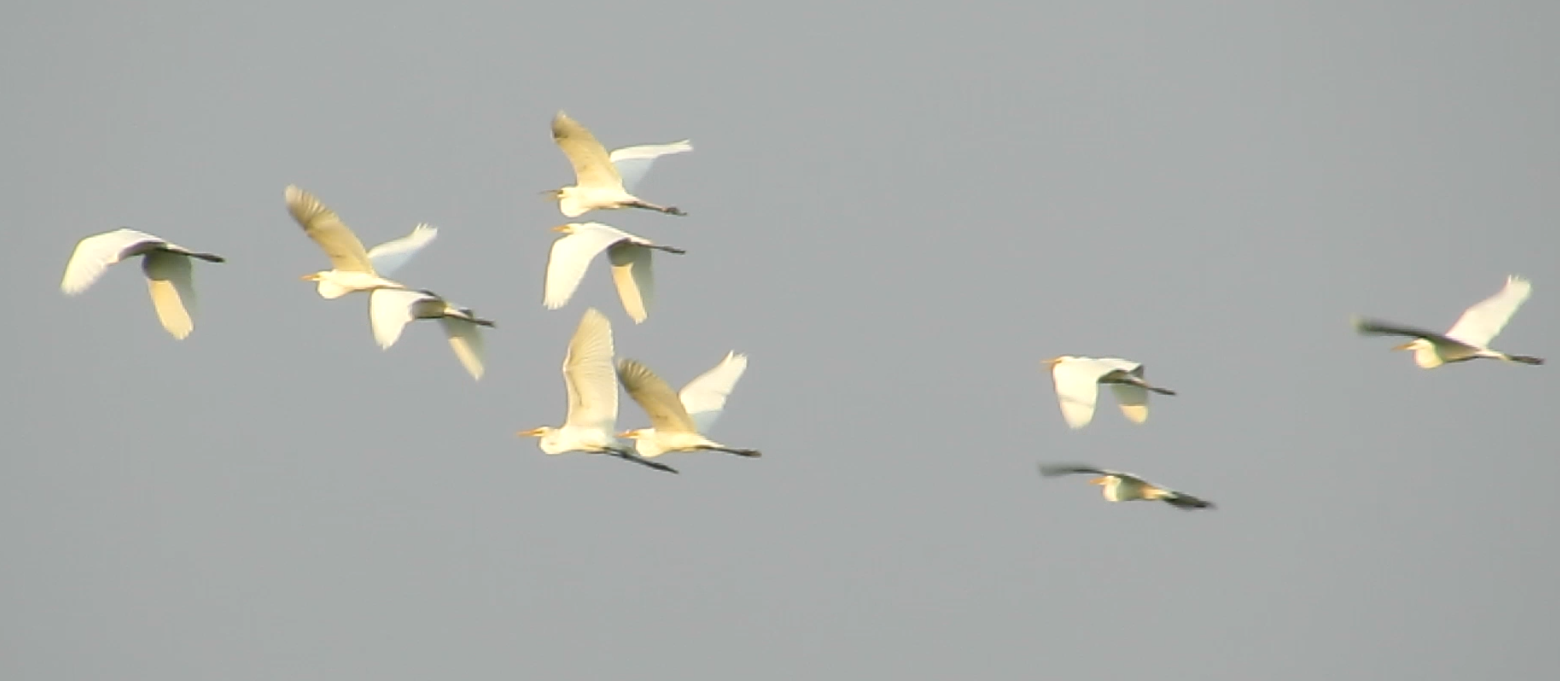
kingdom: Animalia
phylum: Chordata
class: Aves
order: Pelecaniformes
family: Ardeidae
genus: Ardea
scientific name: Ardea alba
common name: Great egret
